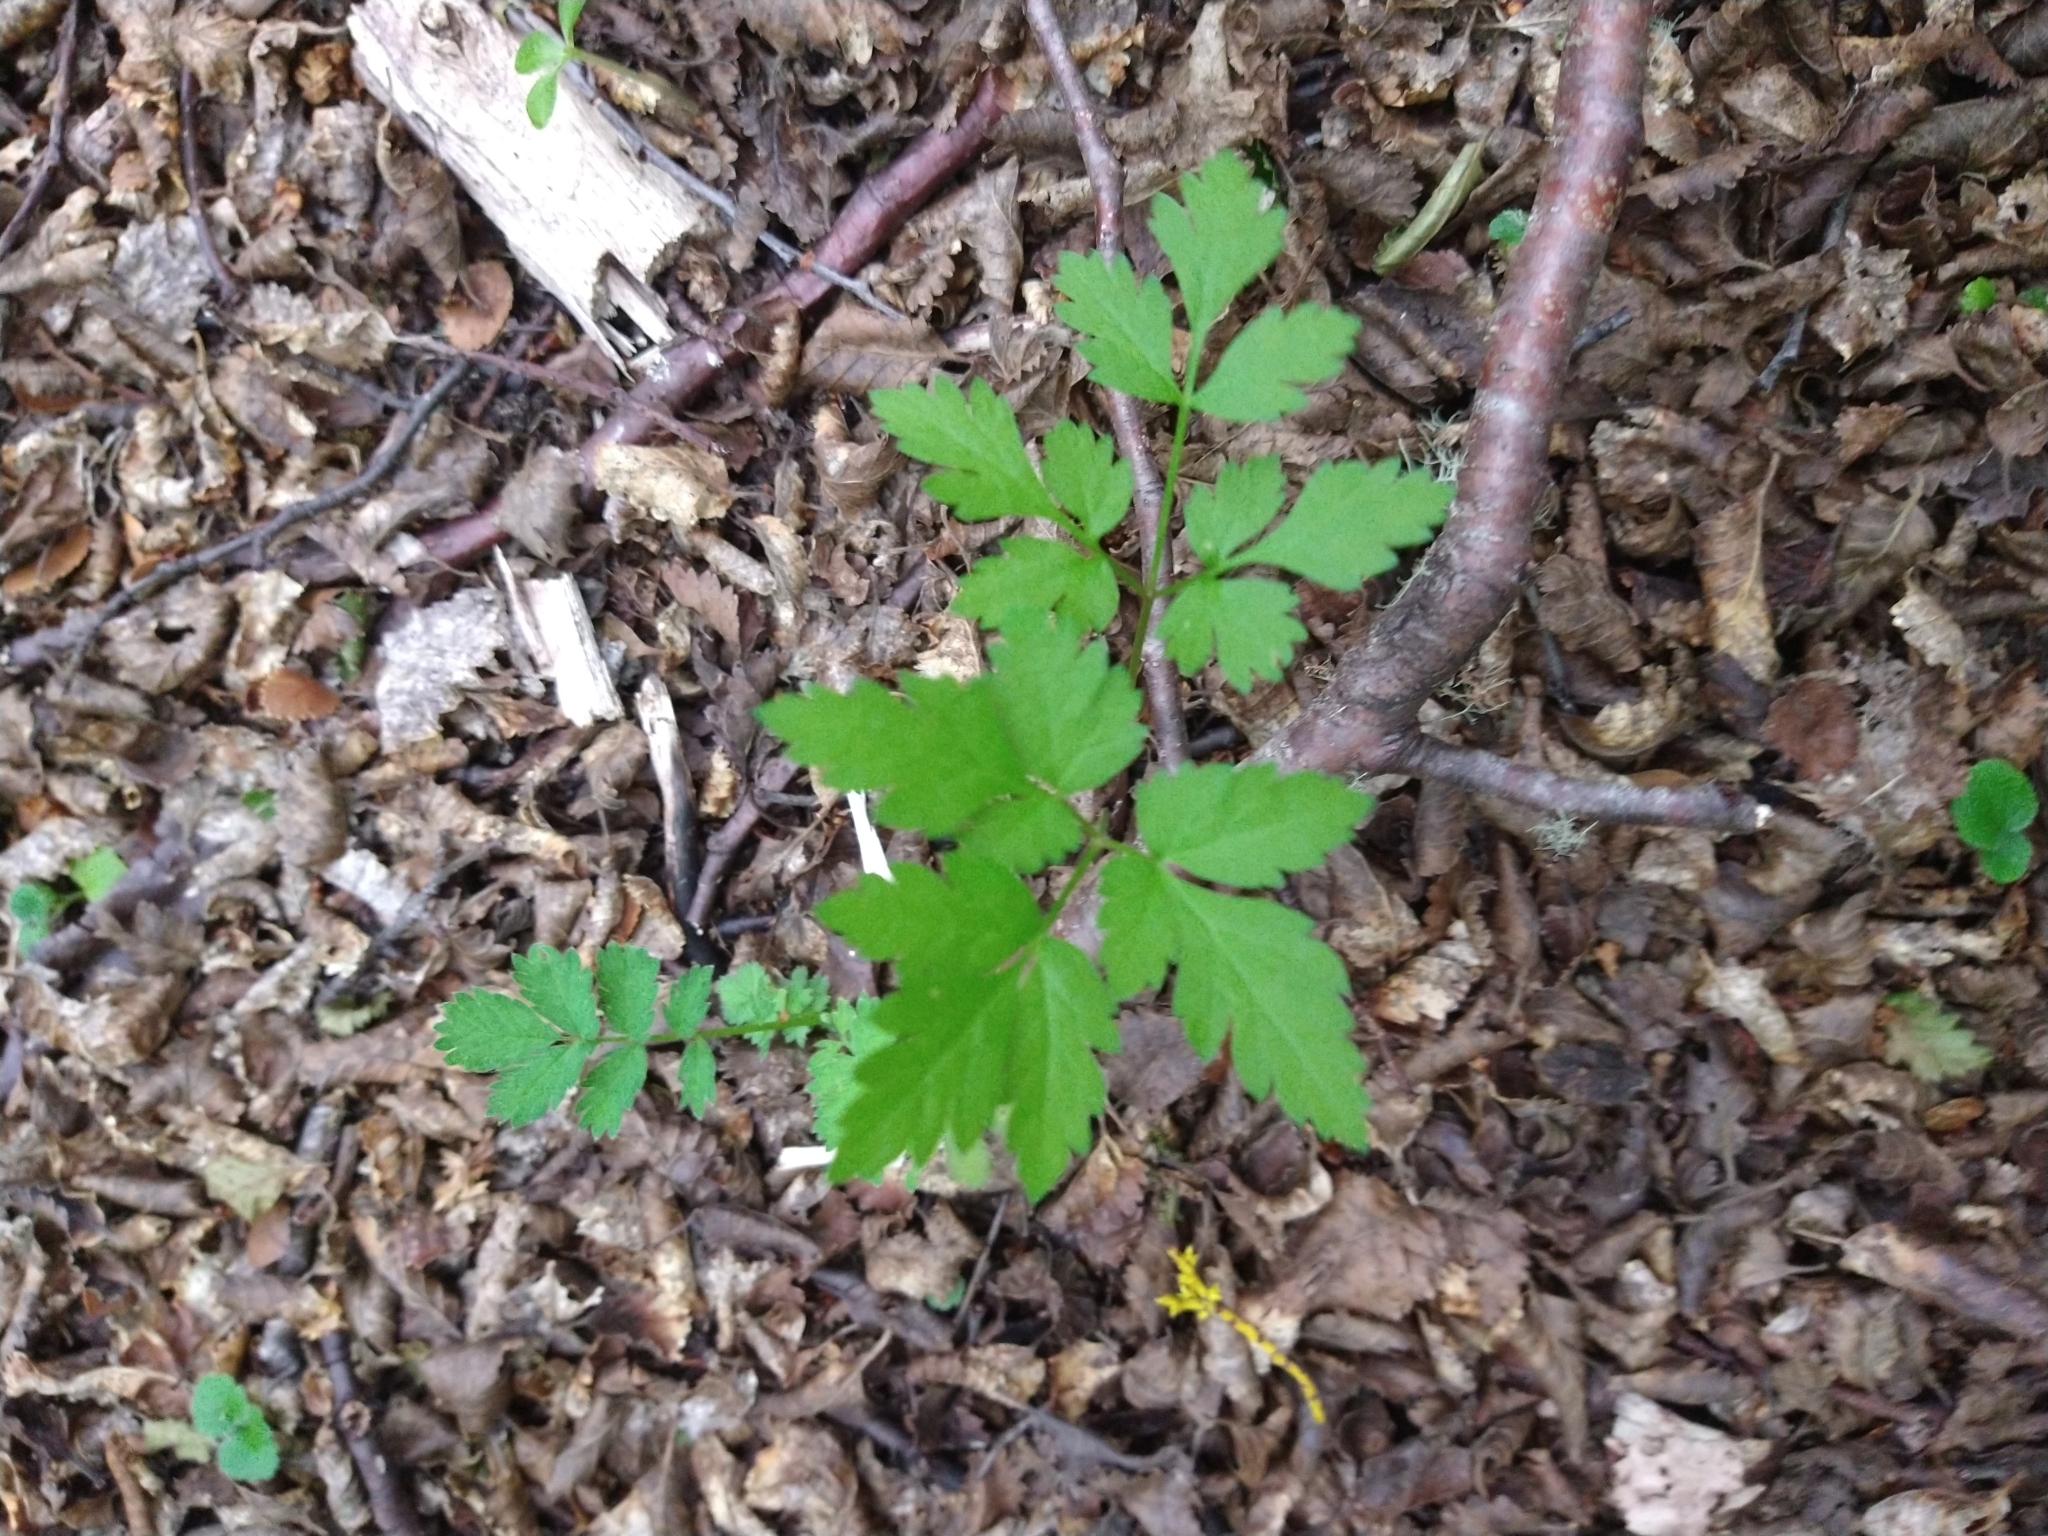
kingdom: Plantae
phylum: Tracheophyta
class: Magnoliopsida
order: Apiales
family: Apiaceae
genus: Osmorhiza
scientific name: Osmorhiza berteroi
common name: Mountain sweet cicely
